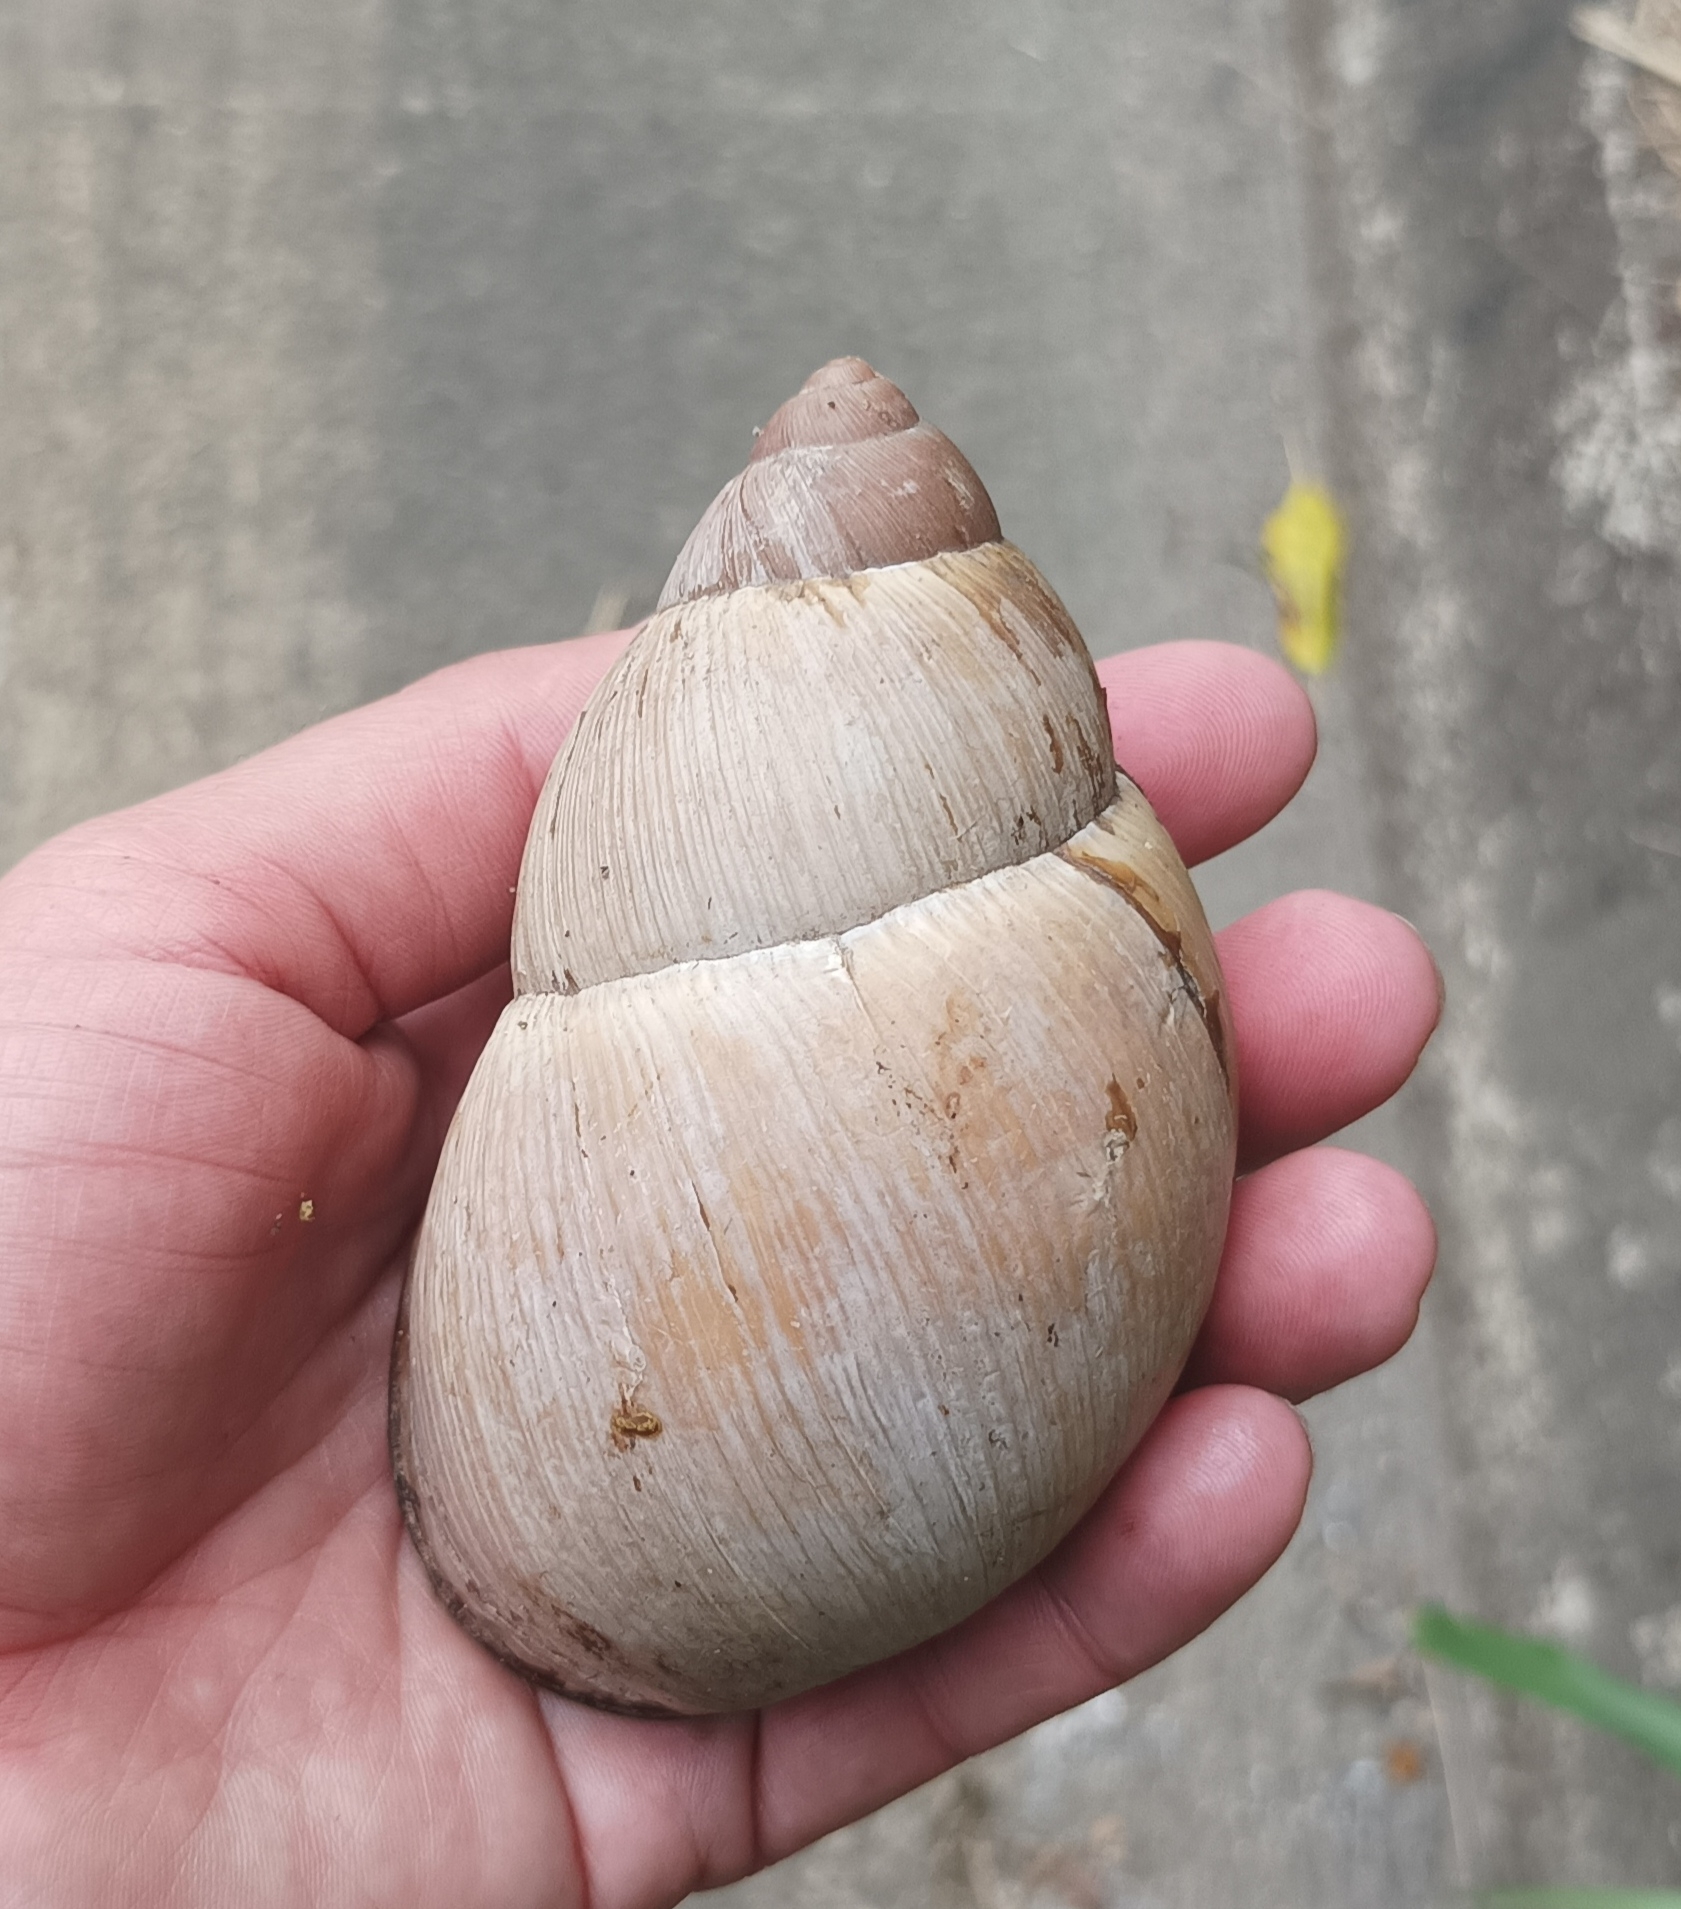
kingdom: Animalia
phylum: Mollusca
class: Gastropoda
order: Stylommatophora
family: Strophocheilidae
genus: Megalobulimus
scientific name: Megalobulimus oblongus
